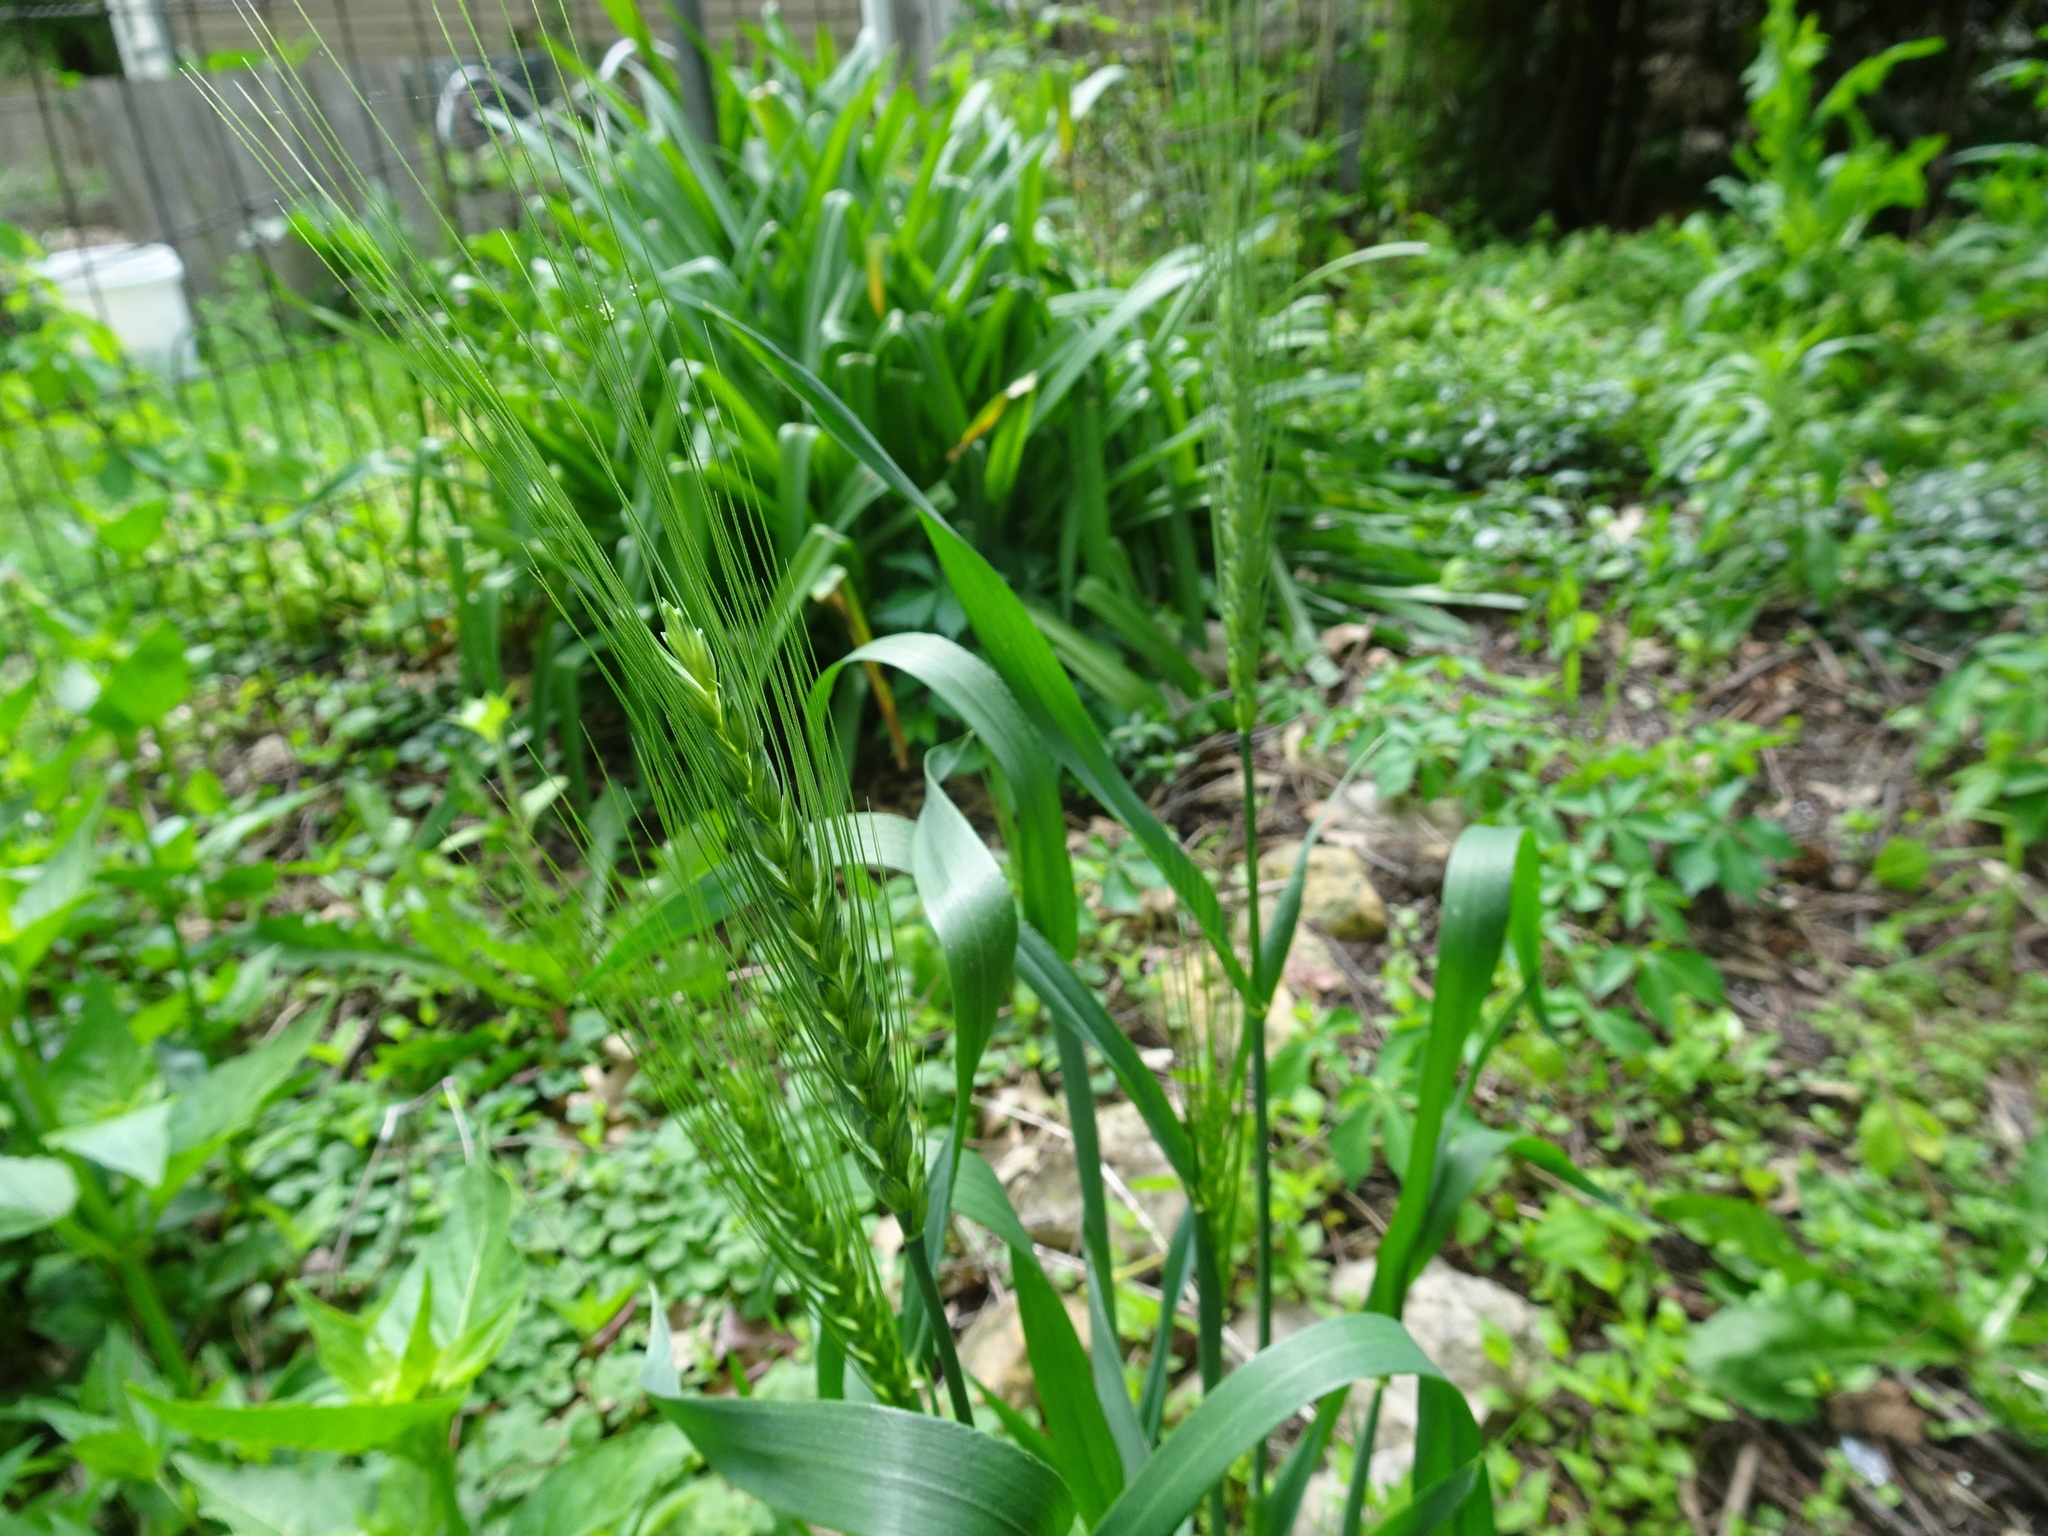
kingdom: Plantae
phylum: Tracheophyta
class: Liliopsida
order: Poales
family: Poaceae
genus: Triticum
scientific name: Triticum aestivum
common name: Common wheat
